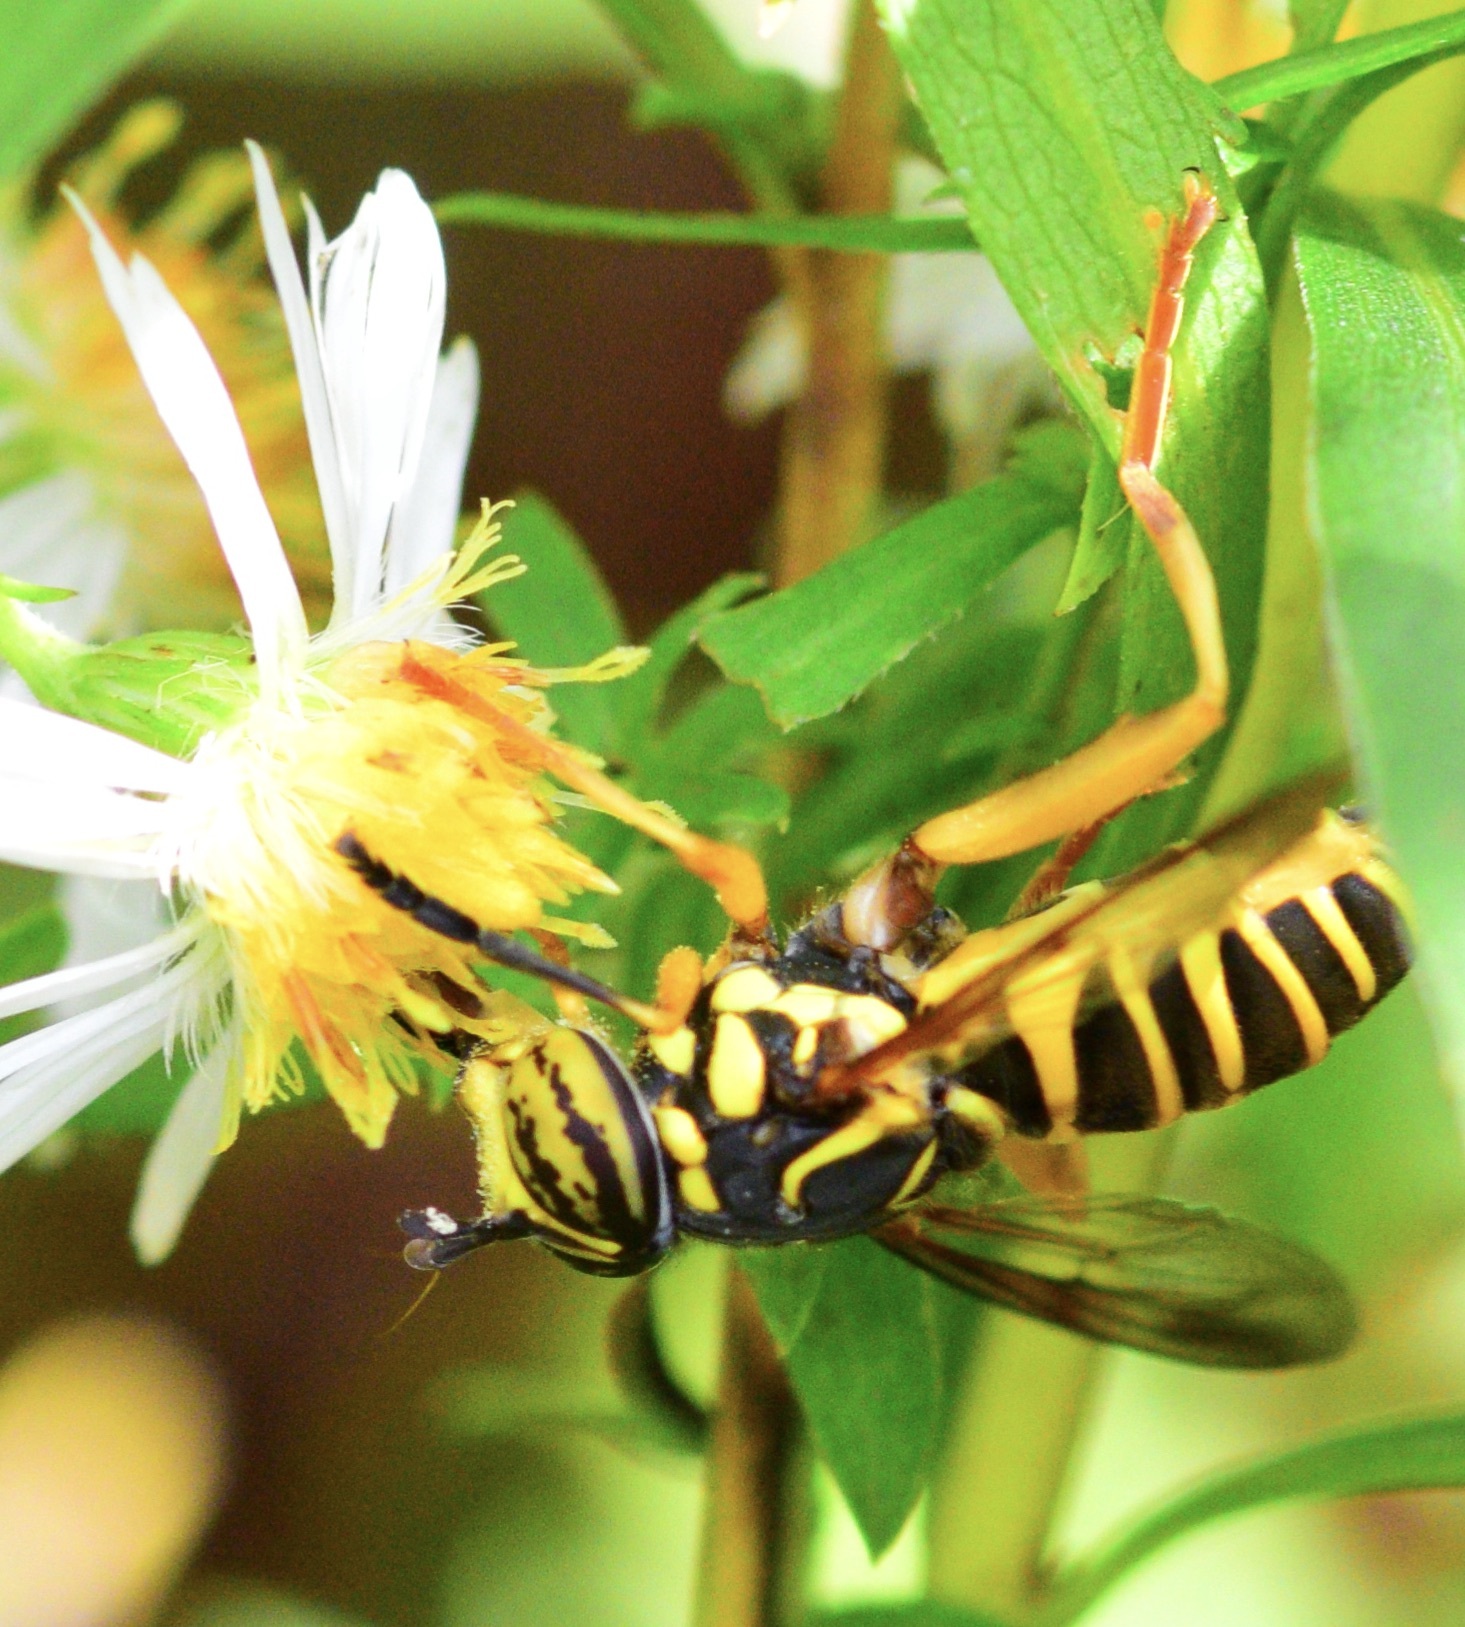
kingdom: Animalia
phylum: Arthropoda
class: Insecta
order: Diptera
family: Syrphidae
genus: Spilomyia
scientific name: Spilomyia longicornis
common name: Eastern hornet fly
